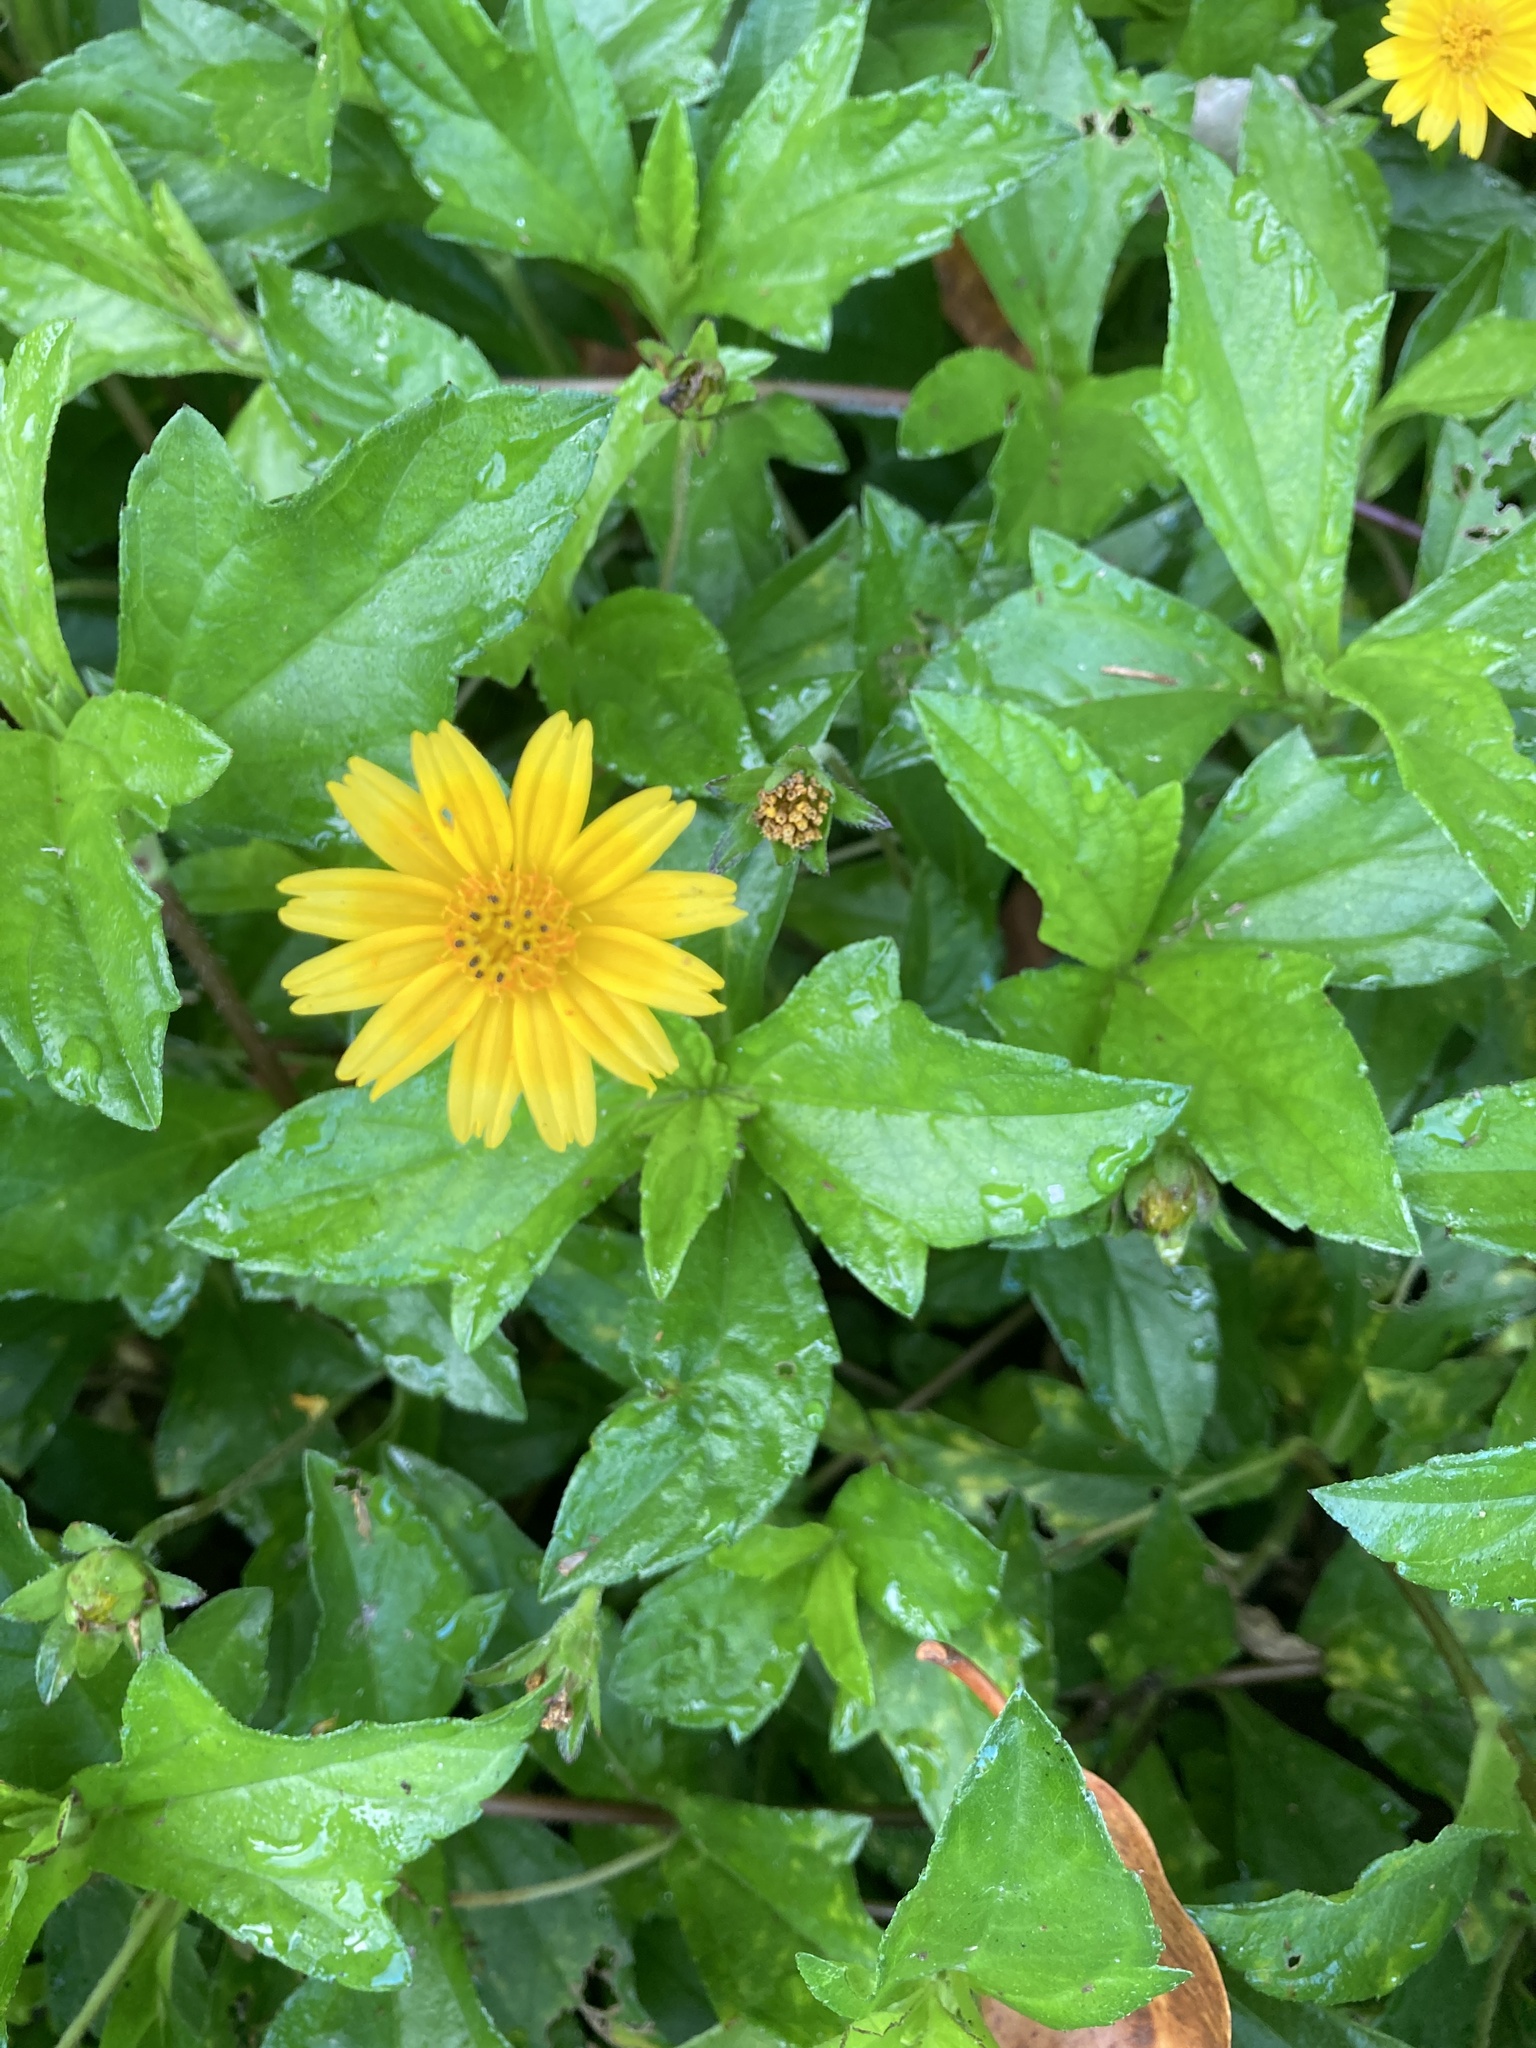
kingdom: Plantae
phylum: Tracheophyta
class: Magnoliopsida
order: Asterales
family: Asteraceae
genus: Sphagneticola
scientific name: Sphagneticola trilobata
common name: Bay biscayne creeping-oxeye
